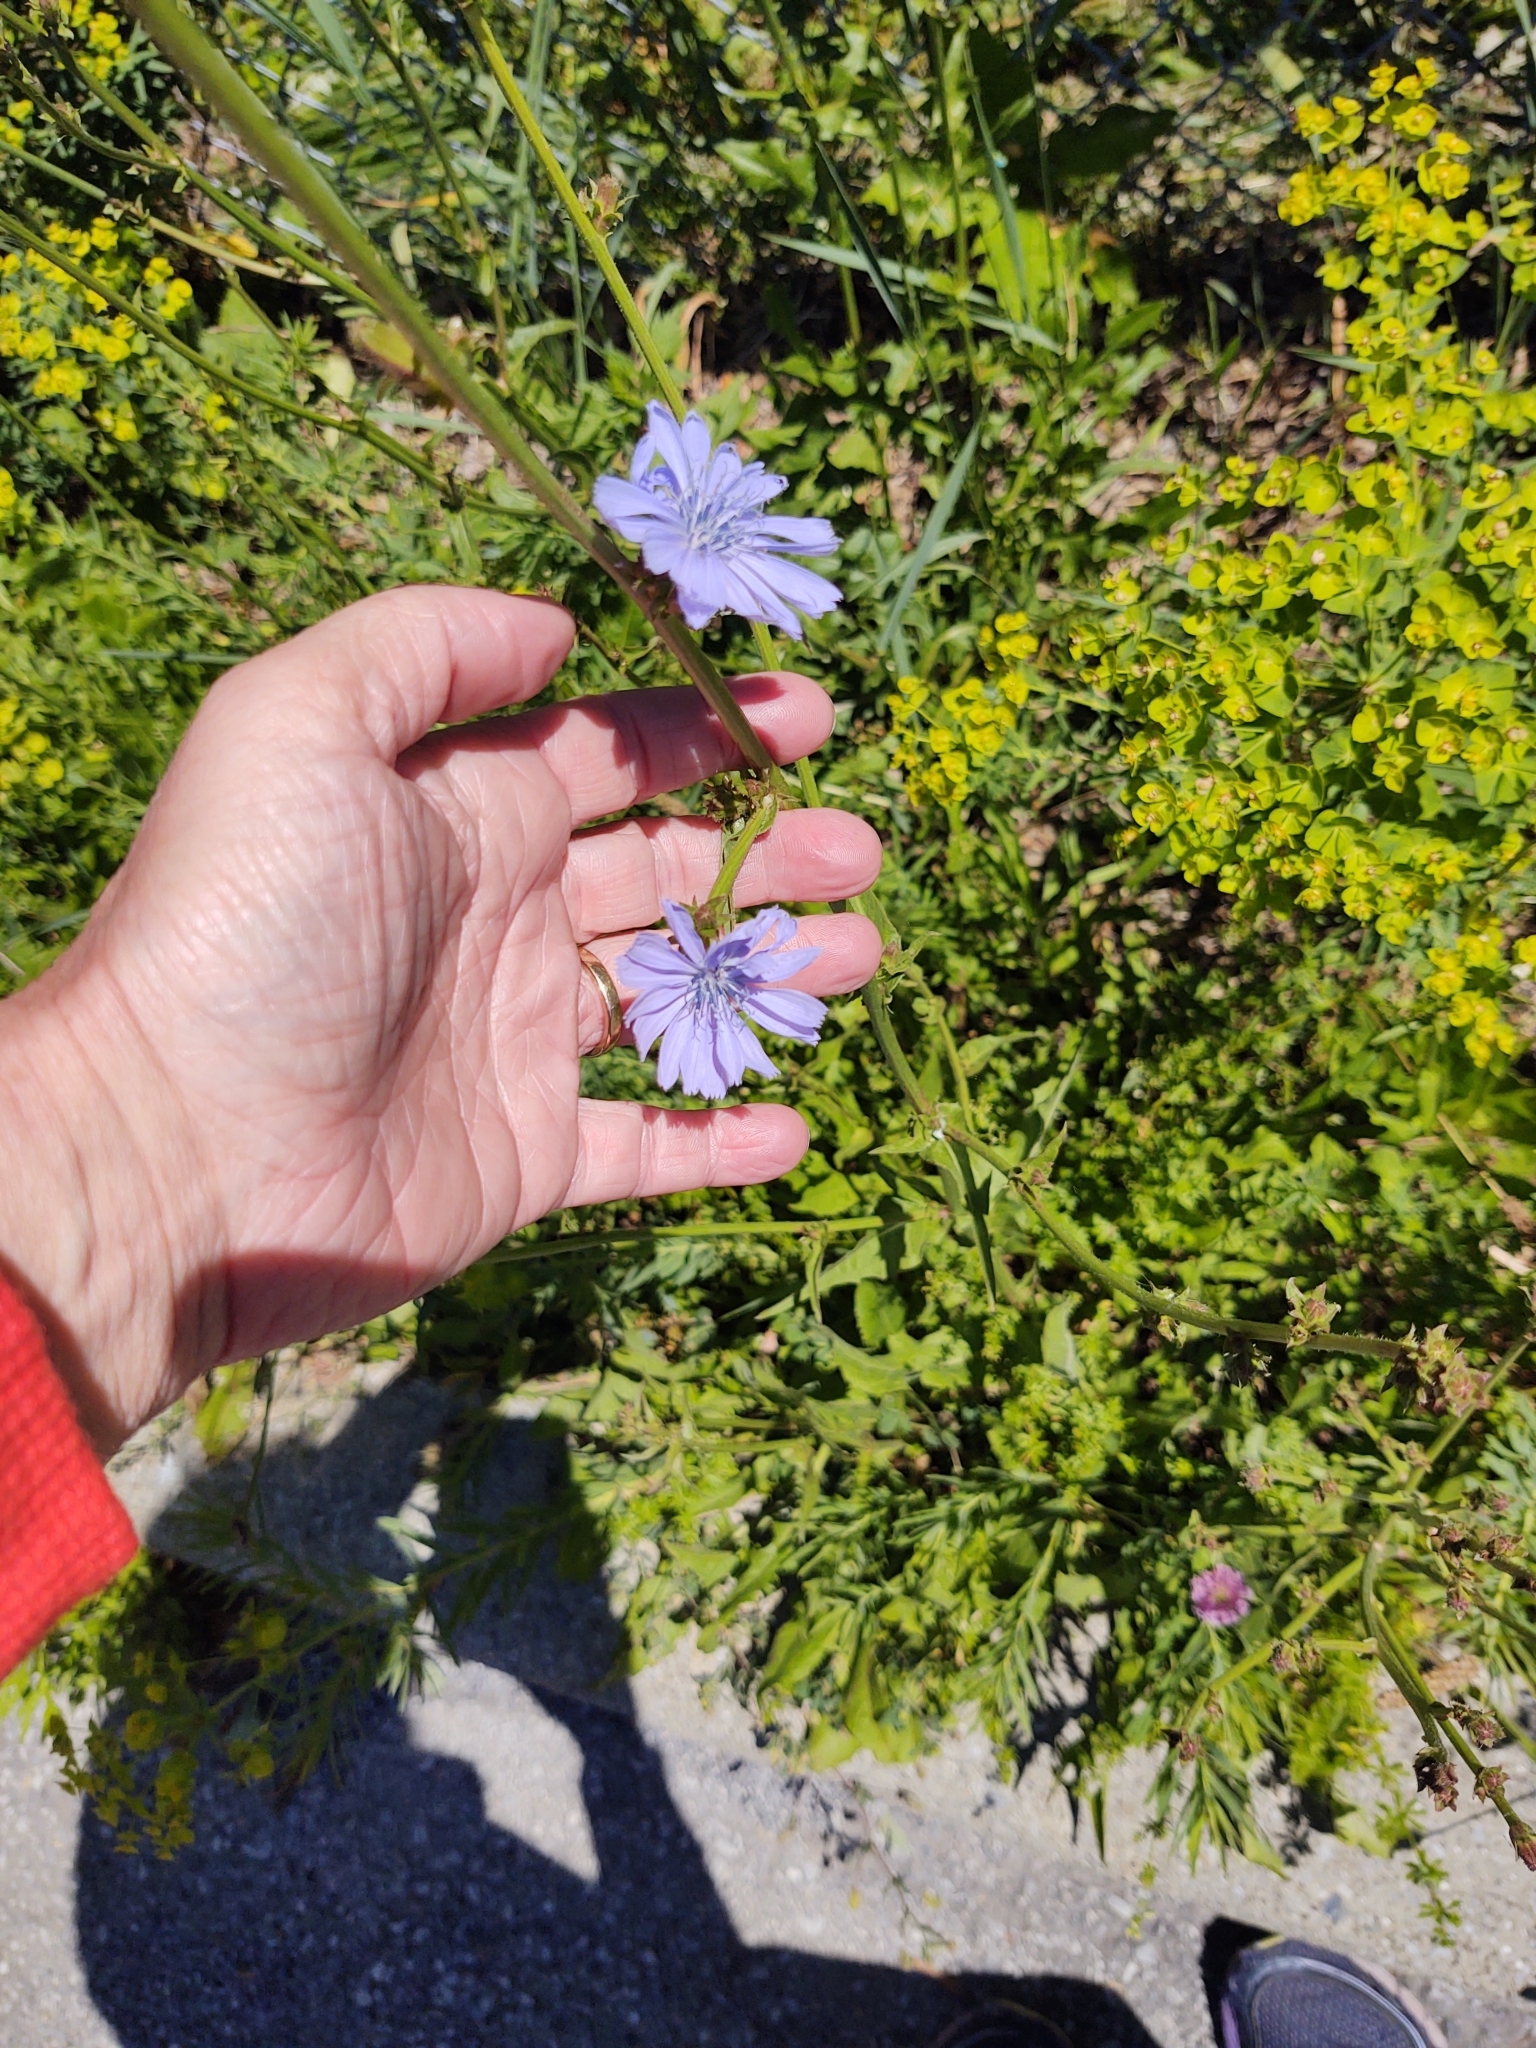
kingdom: Plantae
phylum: Tracheophyta
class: Magnoliopsida
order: Asterales
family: Asteraceae
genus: Cichorium
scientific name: Cichorium intybus
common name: Chicory
